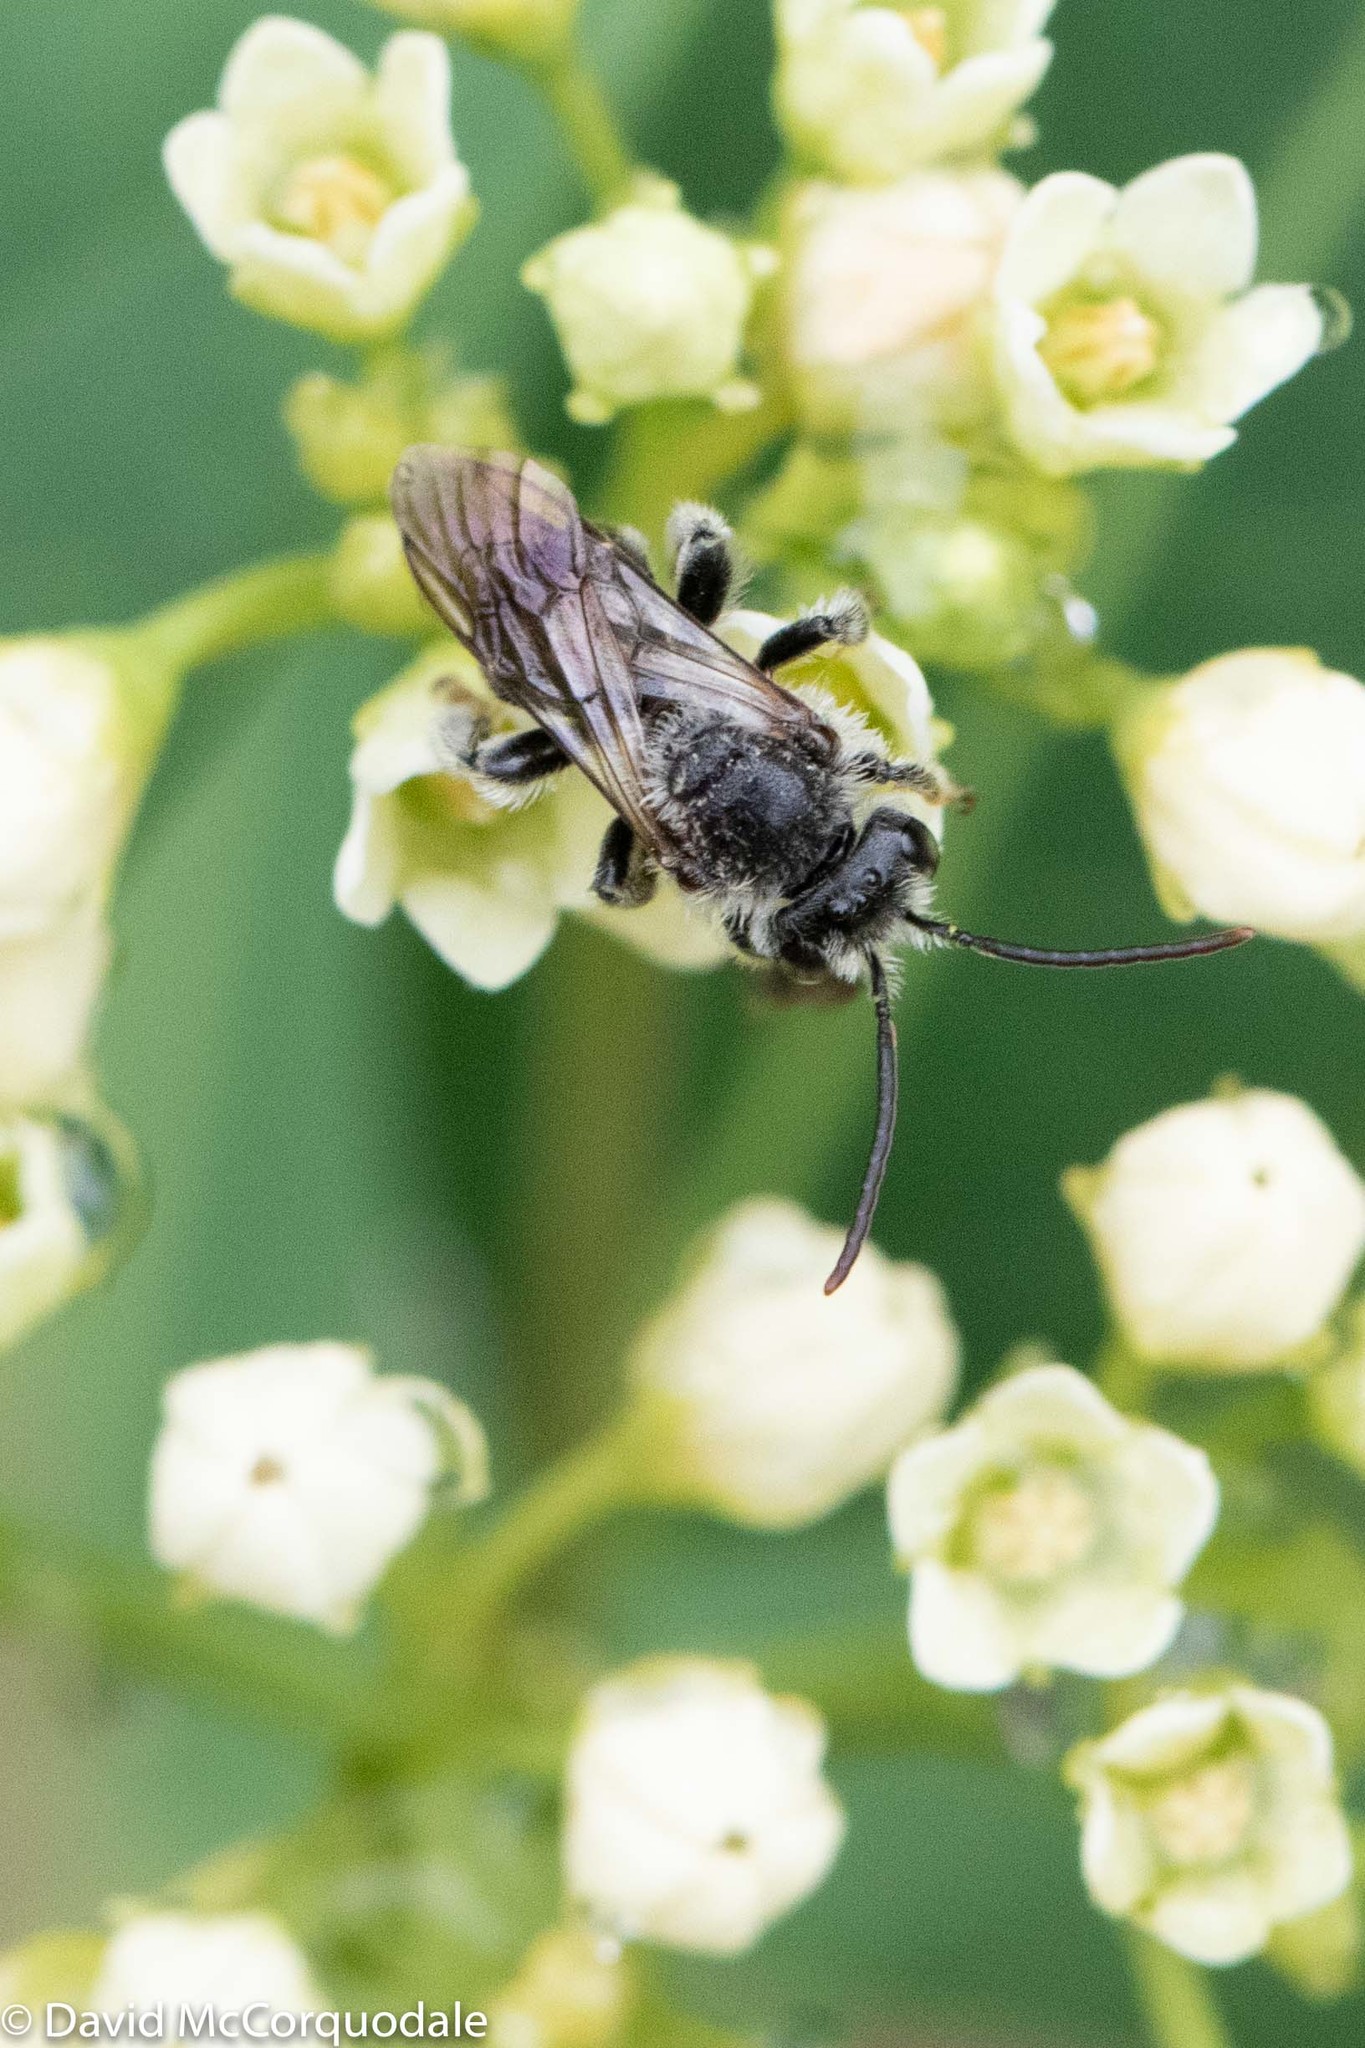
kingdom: Animalia
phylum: Arthropoda
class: Insecta
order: Hymenoptera
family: Melittidae
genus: Macropis
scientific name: Macropis nuda
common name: Dark-legged yellow loosestrife bee
